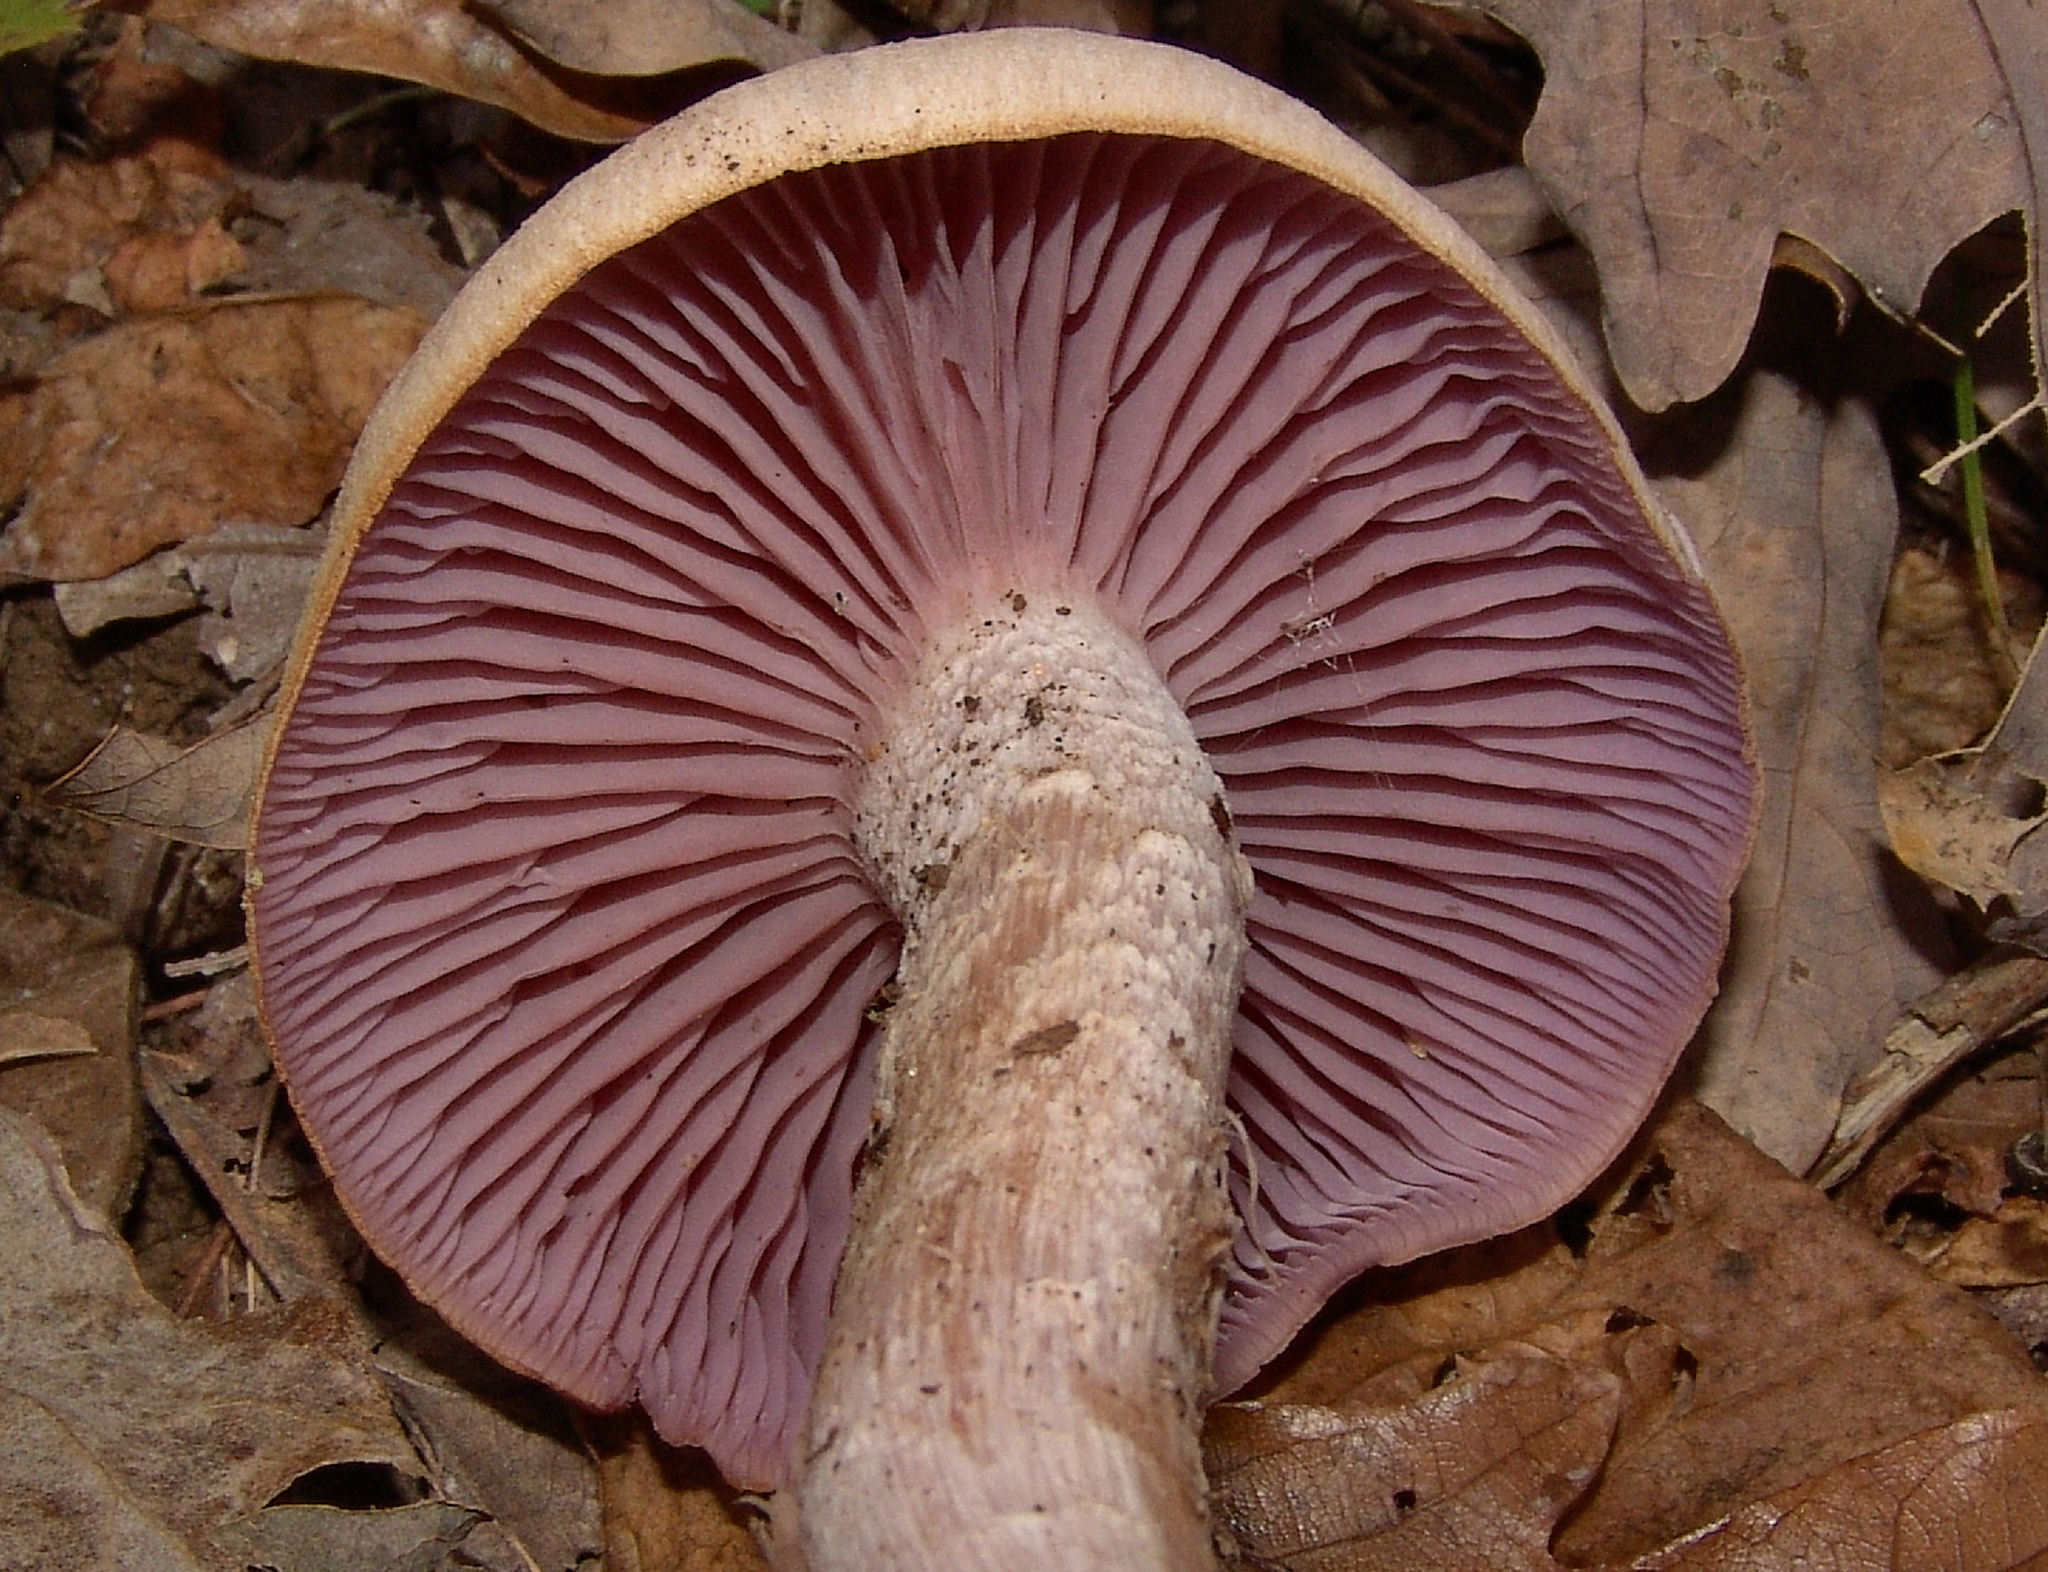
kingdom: Fungi
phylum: Basidiomycota
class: Agaricomycetes
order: Agaricales
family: Hydnangiaceae
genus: Laccaria
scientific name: Laccaria ochropurpurea
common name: Purple laccaria
